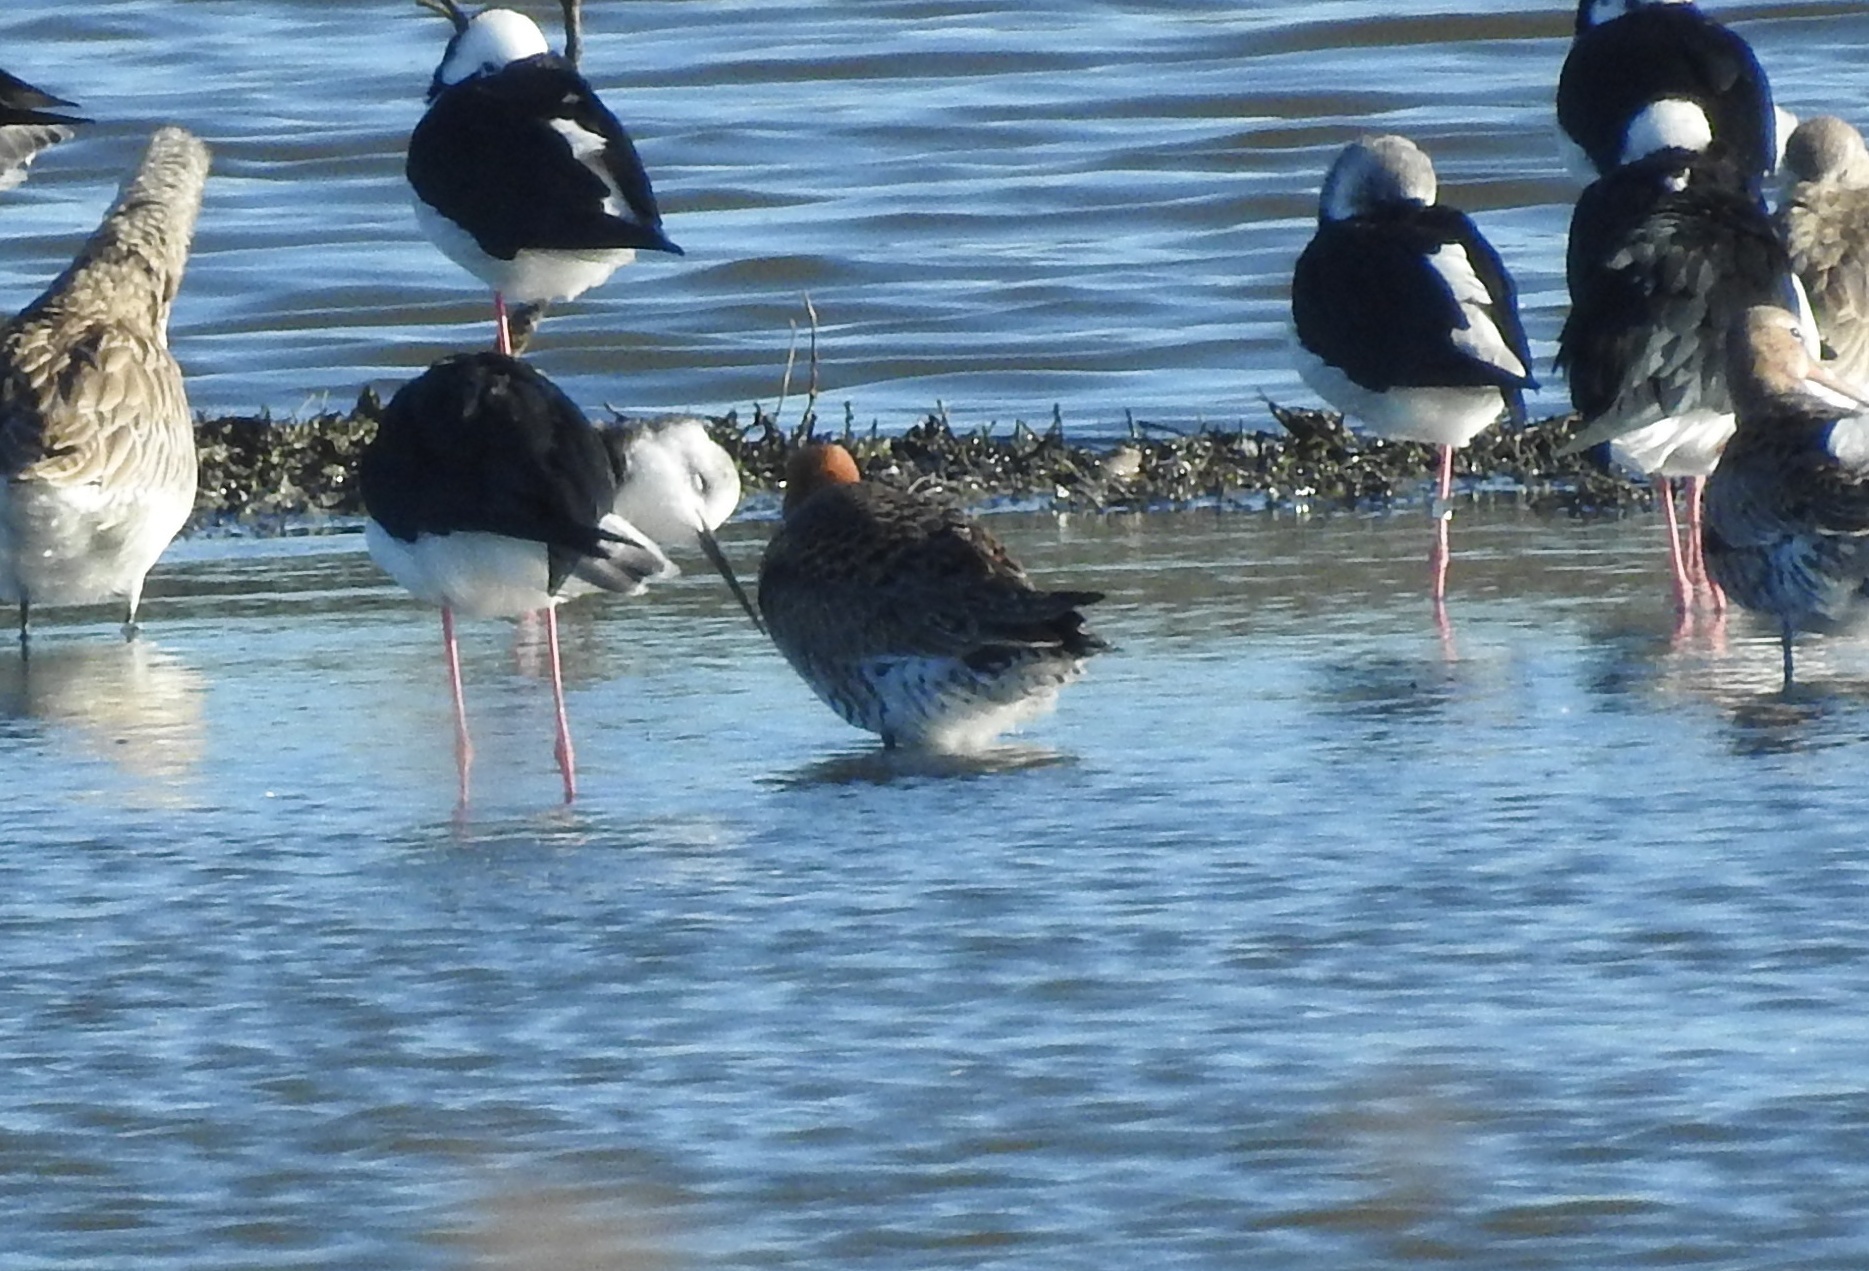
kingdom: Animalia
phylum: Chordata
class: Aves
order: Charadriiformes
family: Scolopacidae
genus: Limosa
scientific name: Limosa haemastica
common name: Hudsonian godwit
